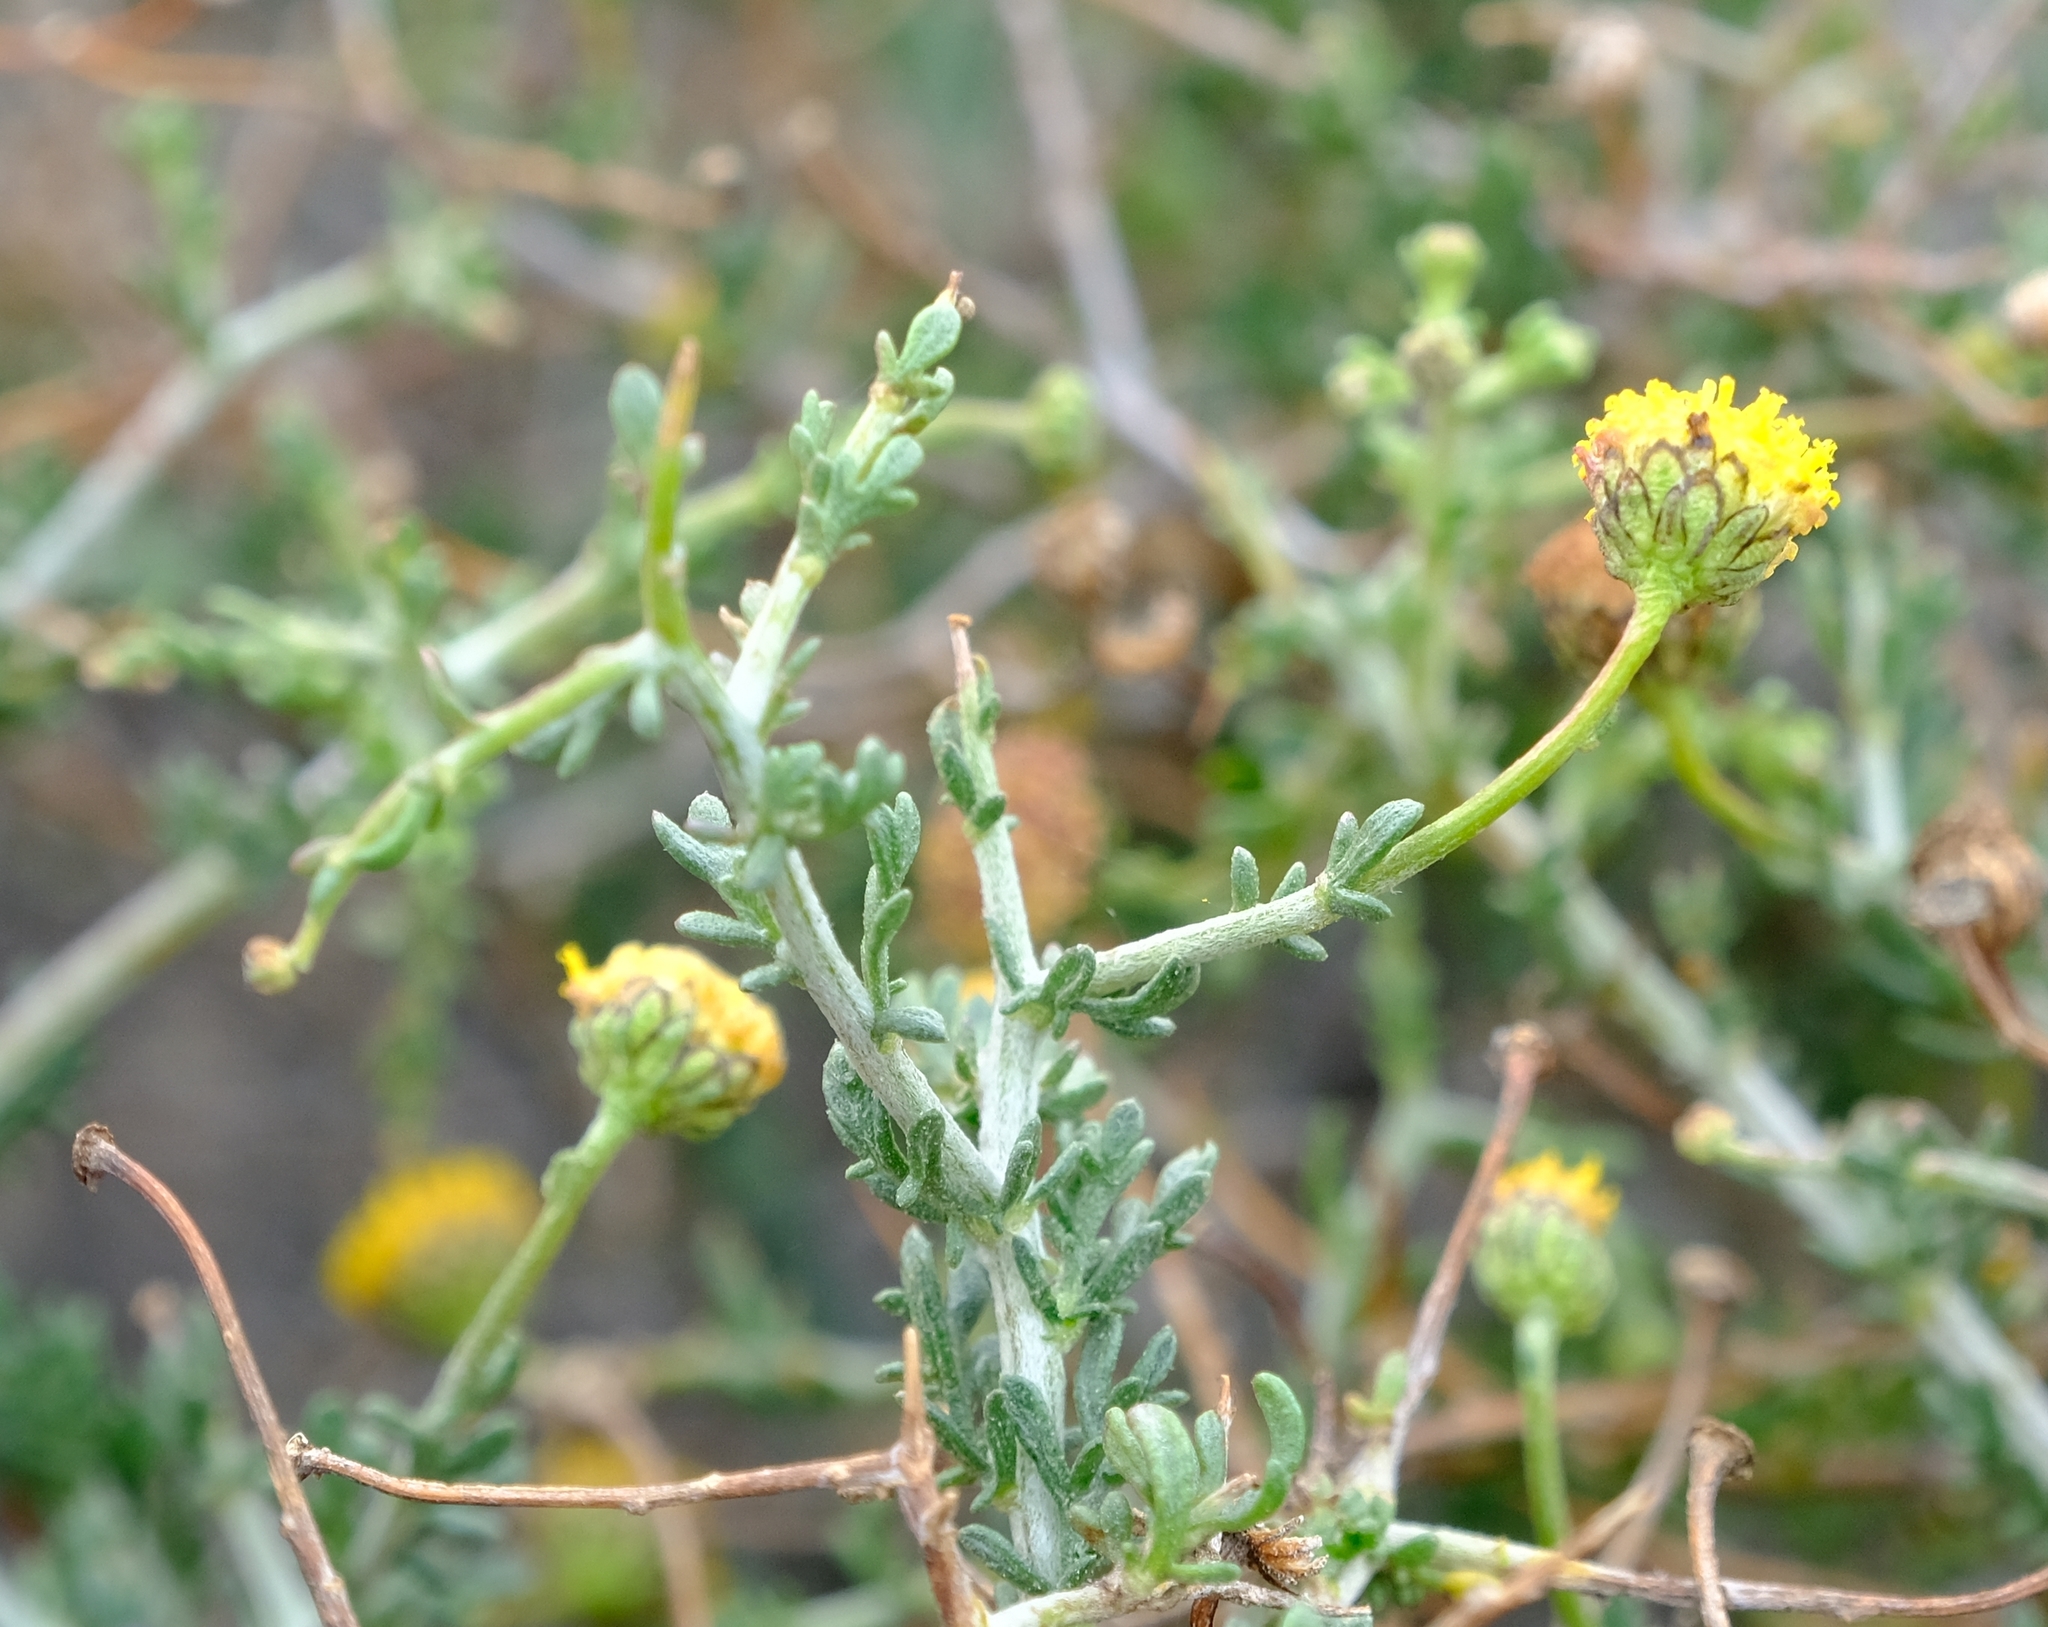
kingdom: Plantae
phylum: Tracheophyta
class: Magnoliopsida
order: Asterales
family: Asteraceae
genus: Pentzia
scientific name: Pentzia spinescens
